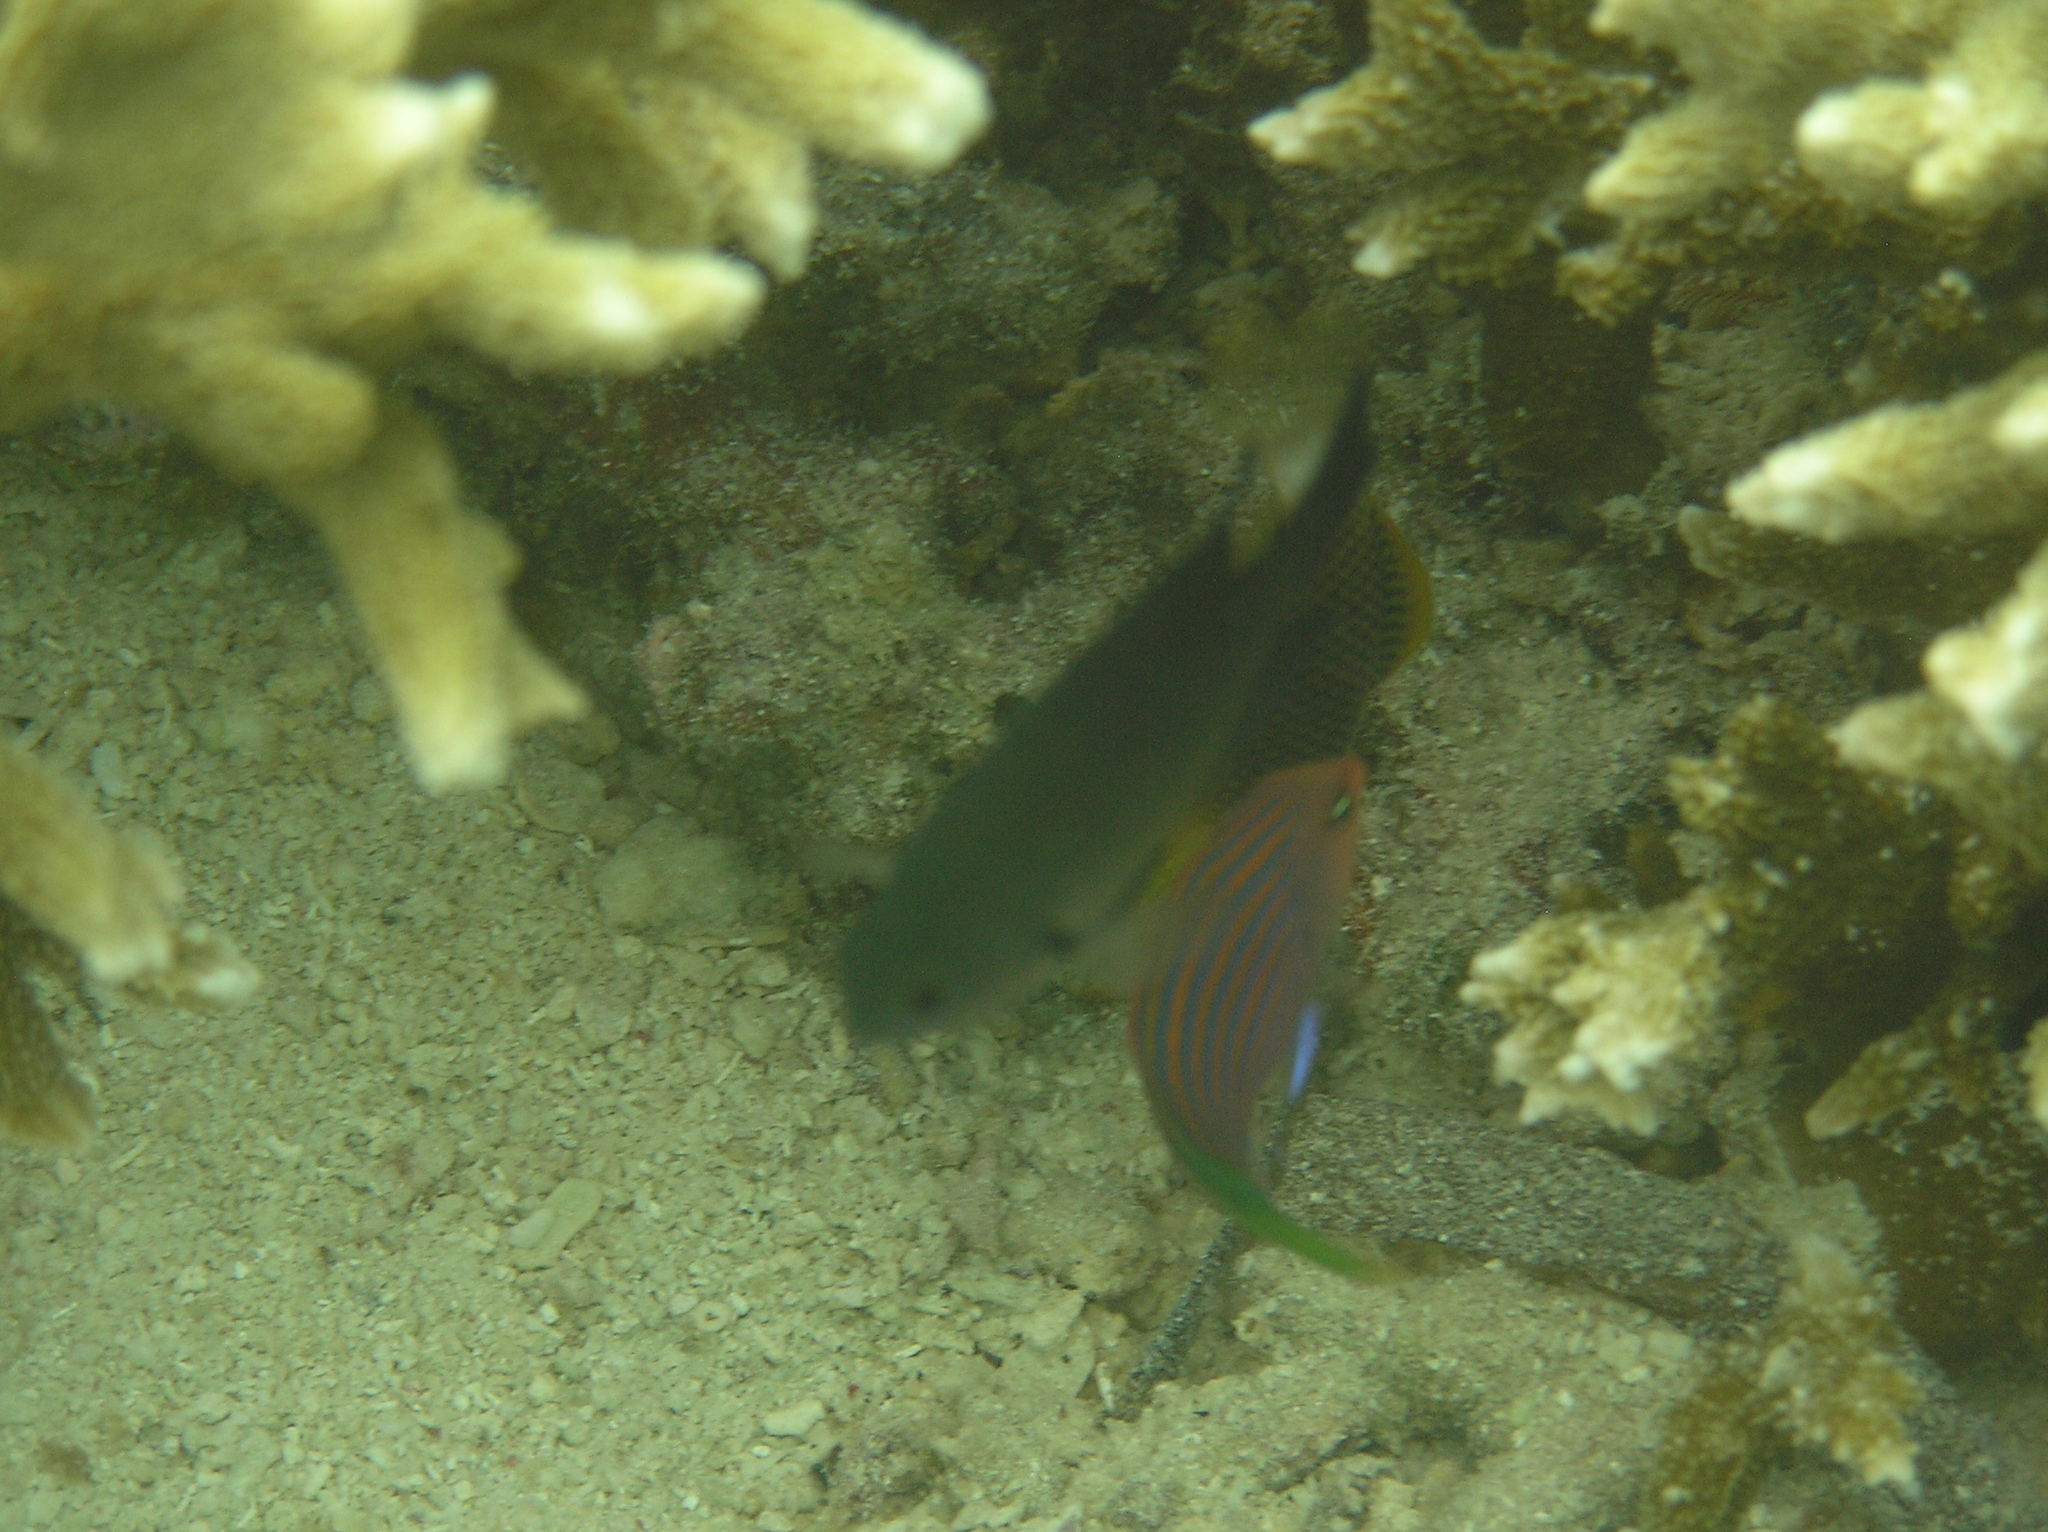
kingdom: Animalia
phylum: Chordata
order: Perciformes
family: Labridae
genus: Pseudocheilinus
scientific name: Pseudocheilinus hexataenia
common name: Sixline wrasse
